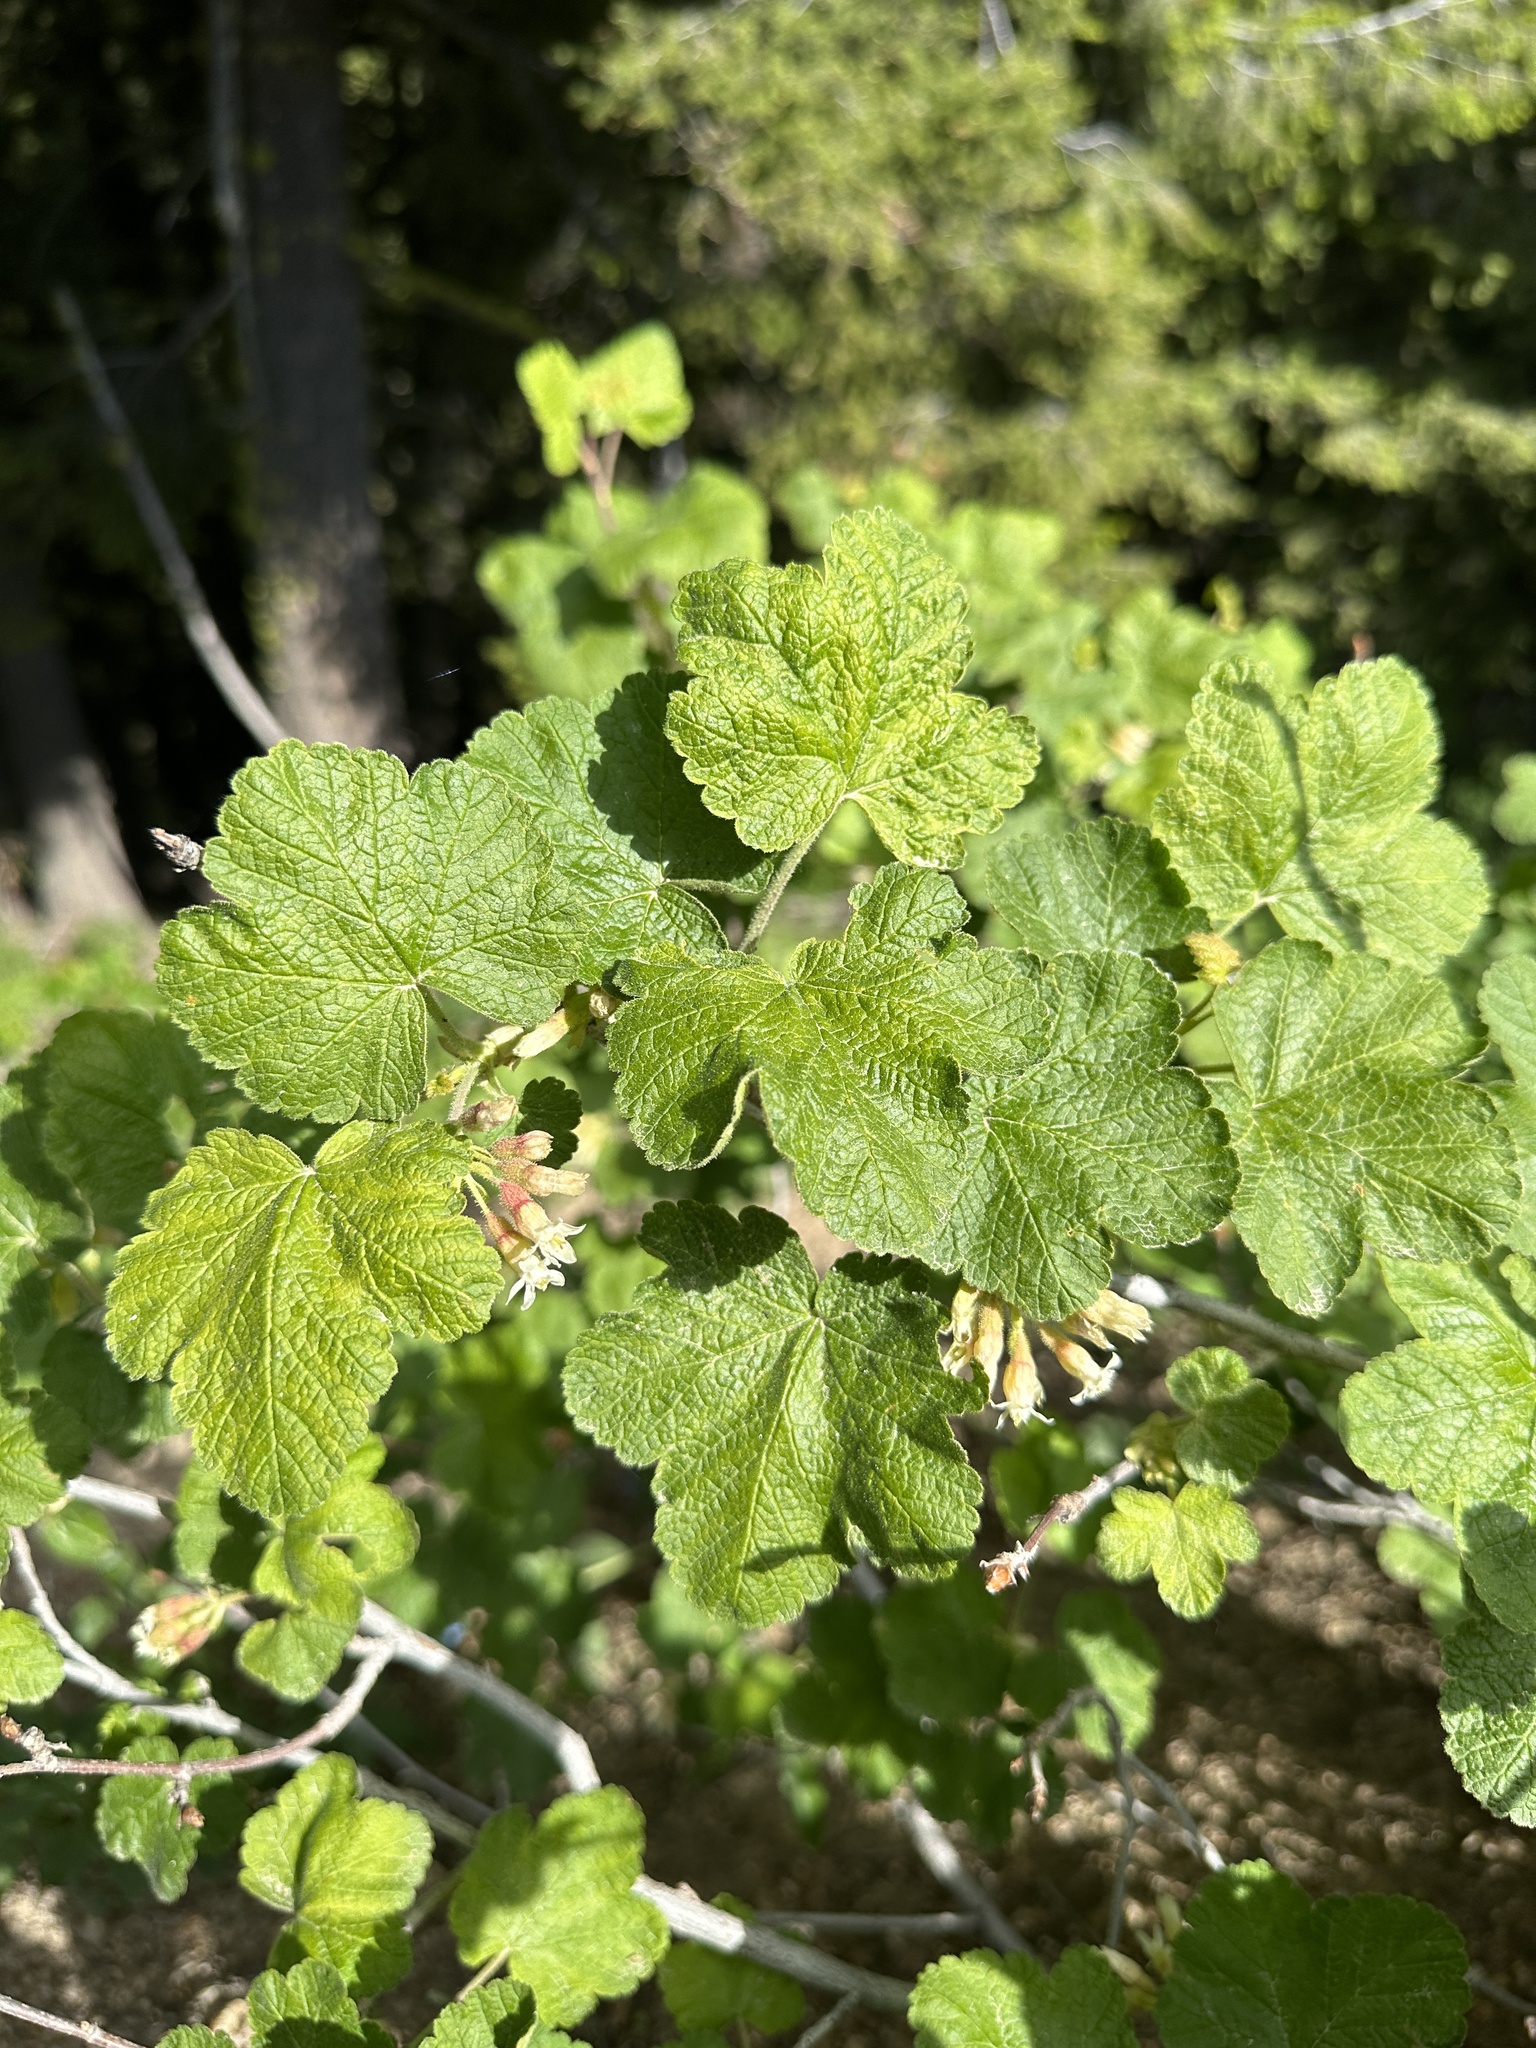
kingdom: Plantae
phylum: Tracheophyta
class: Magnoliopsida
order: Saxifragales
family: Grossulariaceae
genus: Ribes
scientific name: Ribes viscosissimum
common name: Sticky currant
